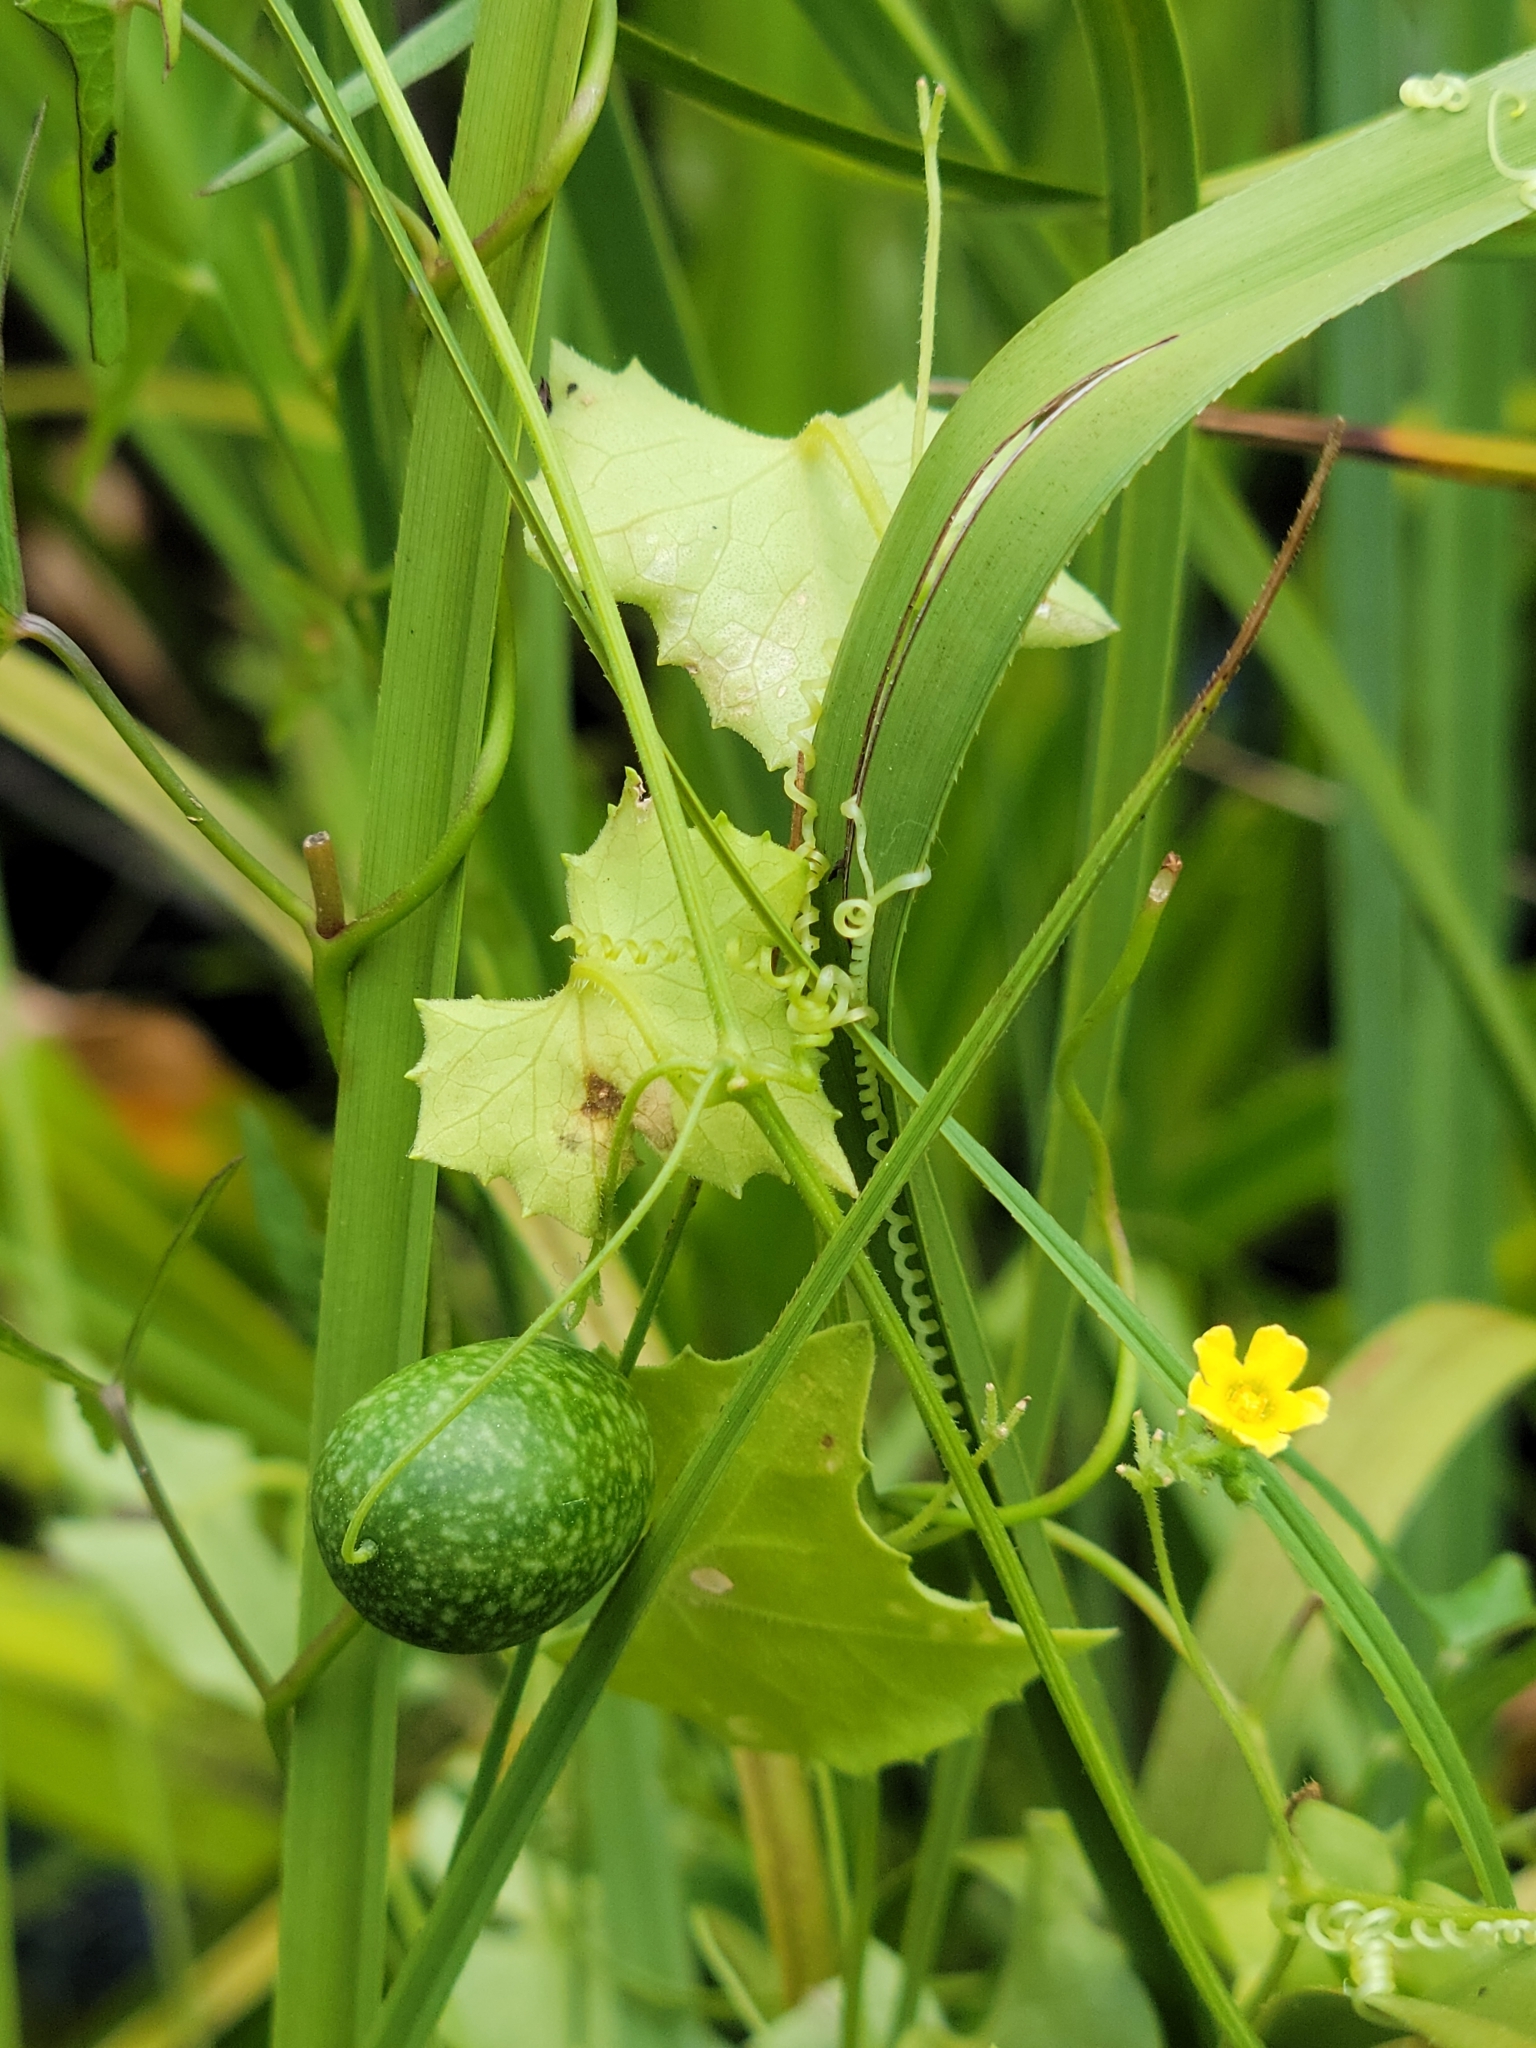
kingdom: Plantae
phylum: Tracheophyta
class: Magnoliopsida
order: Cucurbitales
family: Cucurbitaceae
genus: Melothria
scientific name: Melothria pendula
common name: Creeping-cucumber
